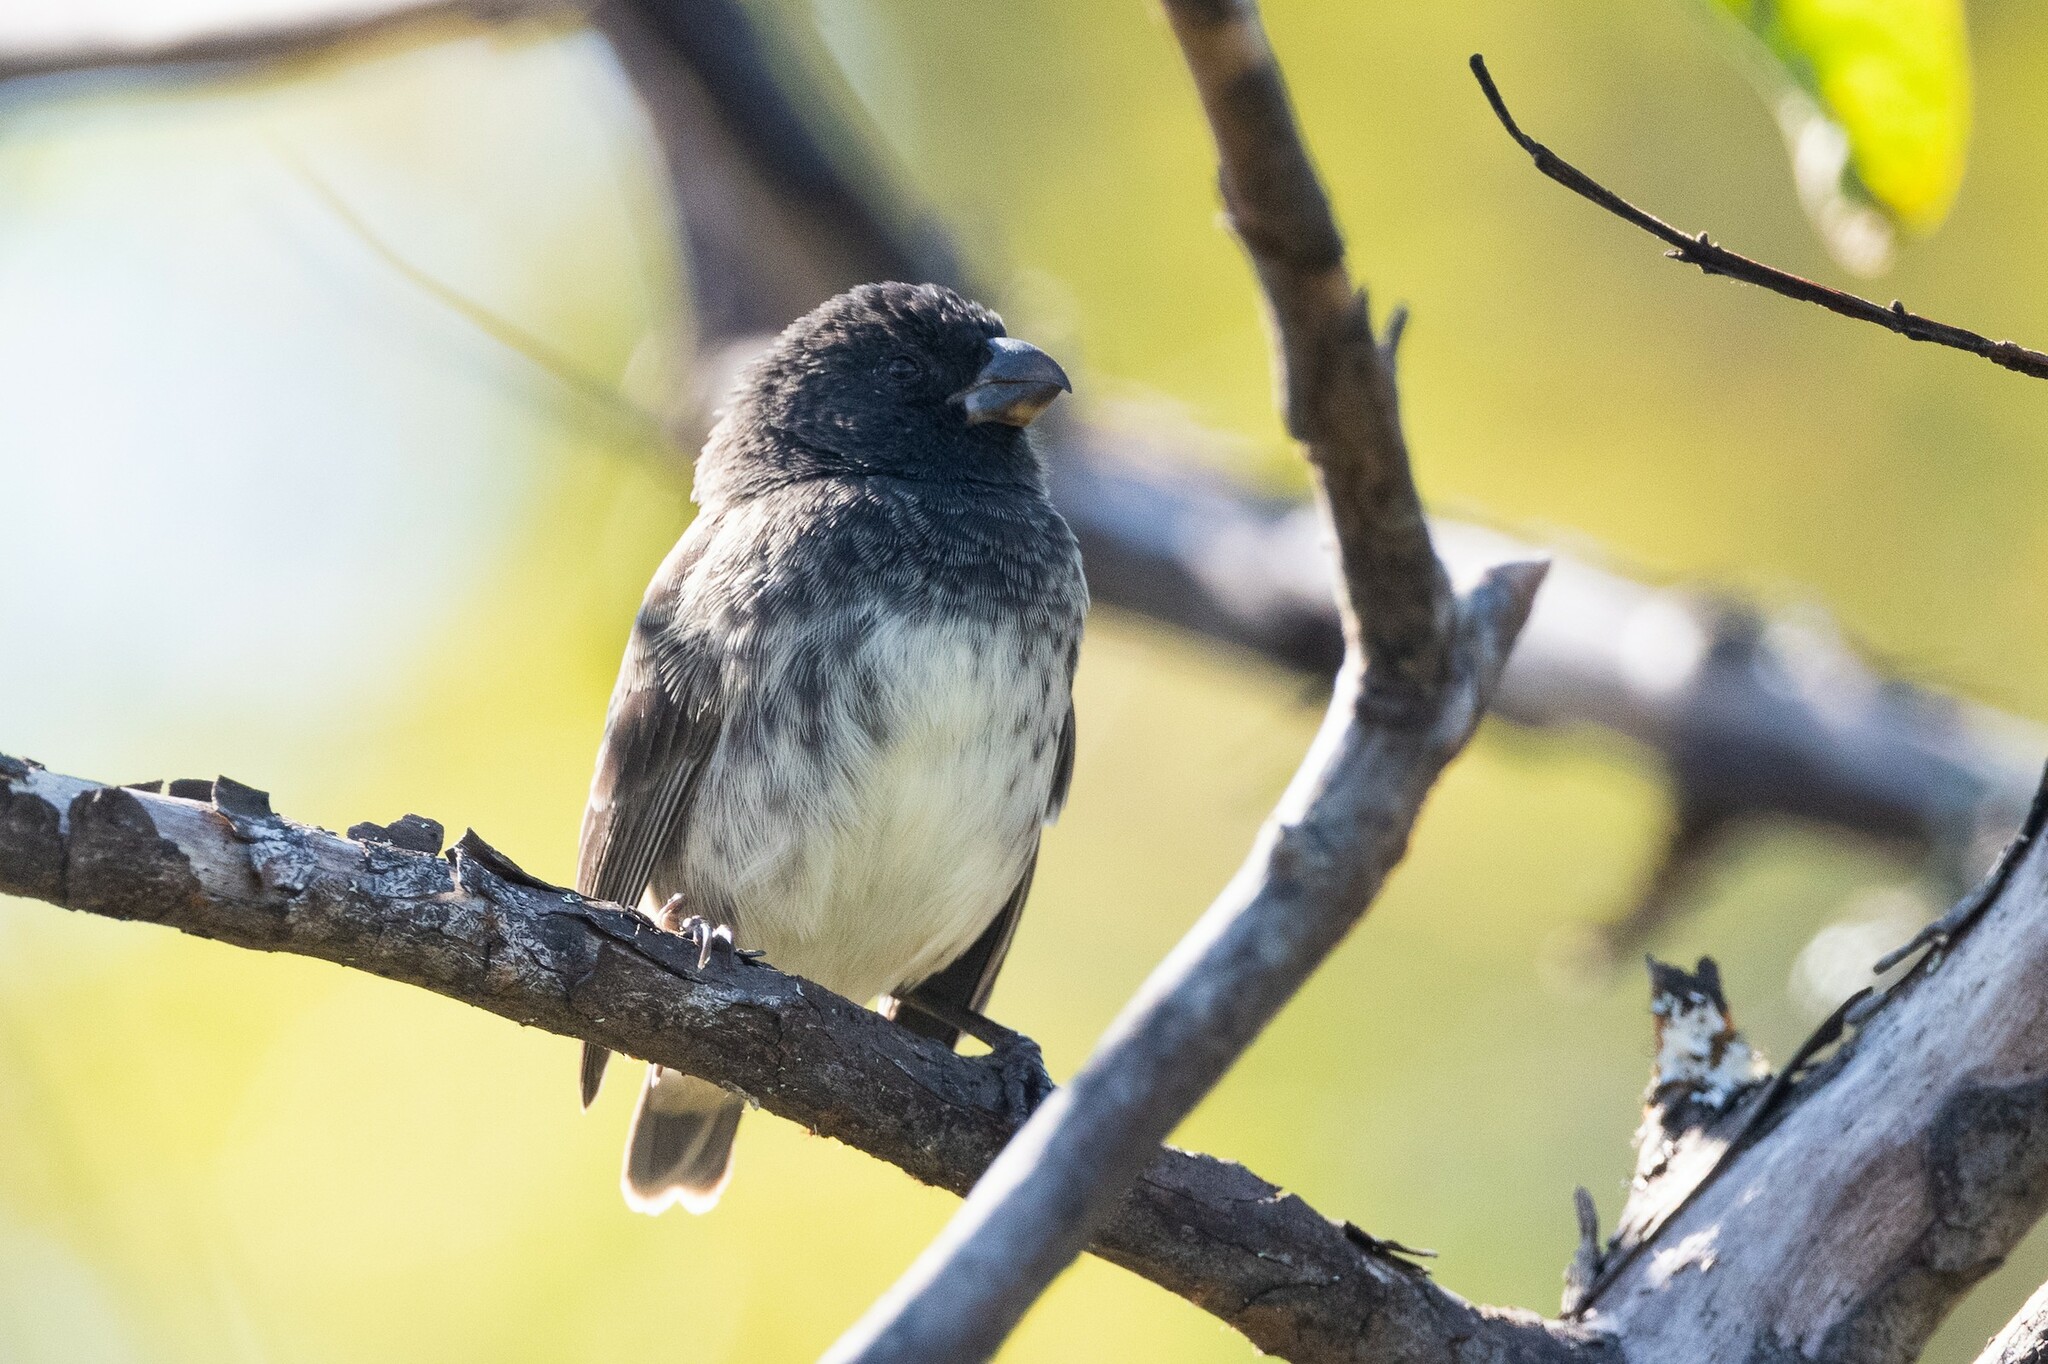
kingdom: Animalia
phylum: Chordata
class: Aves
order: Passeriformes
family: Thraupidae
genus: Camarhynchus
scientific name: Camarhynchus psittacula
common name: Large tree finch
